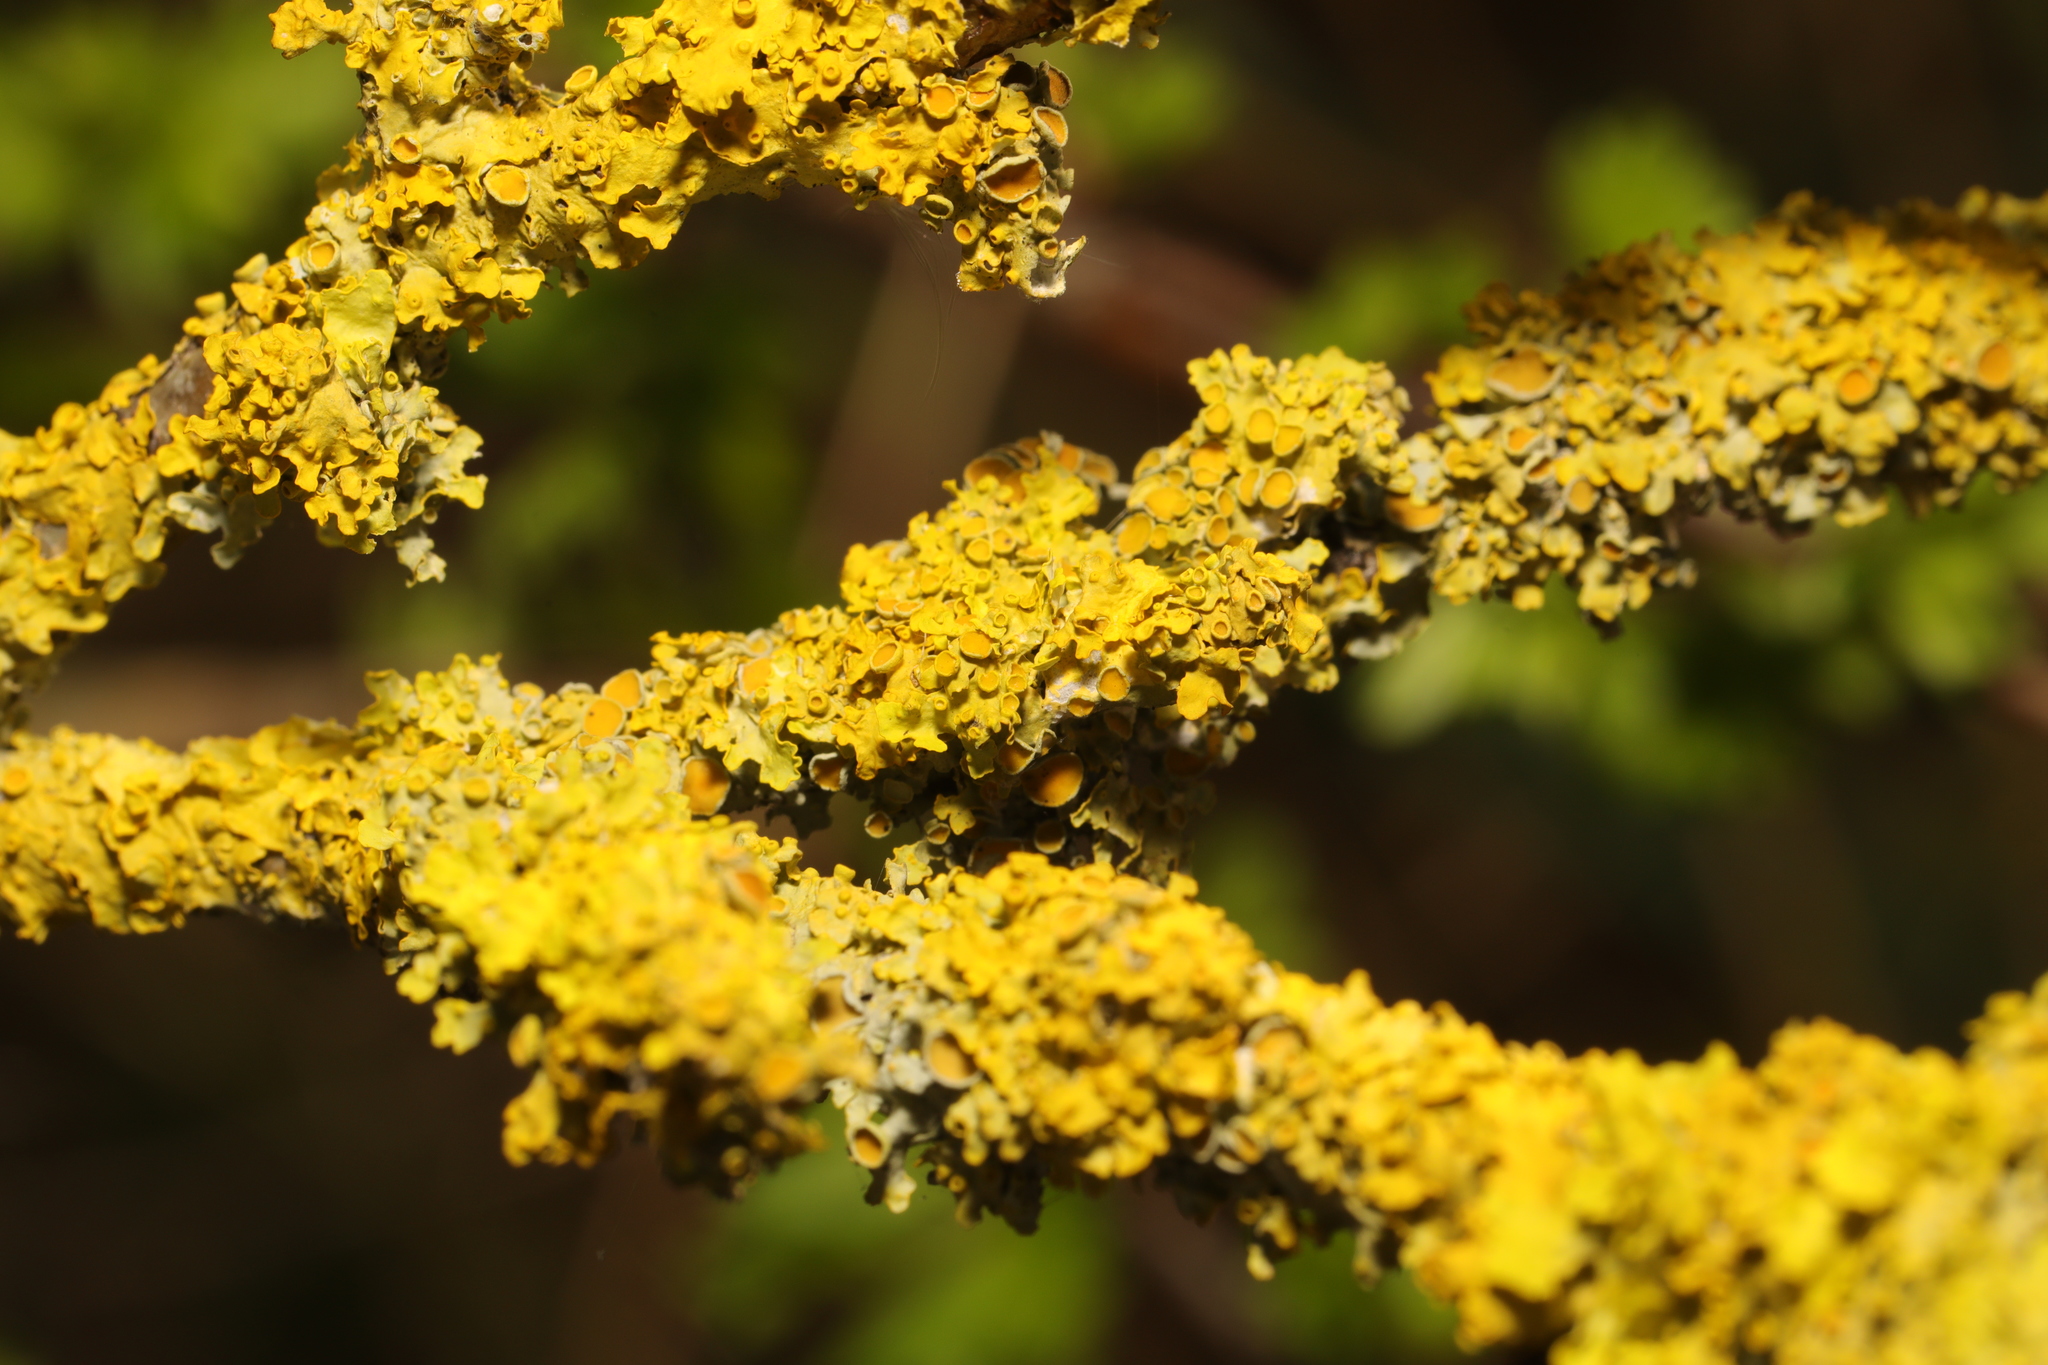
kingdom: Fungi
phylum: Ascomycota
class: Lecanoromycetes
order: Teloschistales
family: Teloschistaceae
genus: Xanthoria
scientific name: Xanthoria parietina
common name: Common orange lichen
